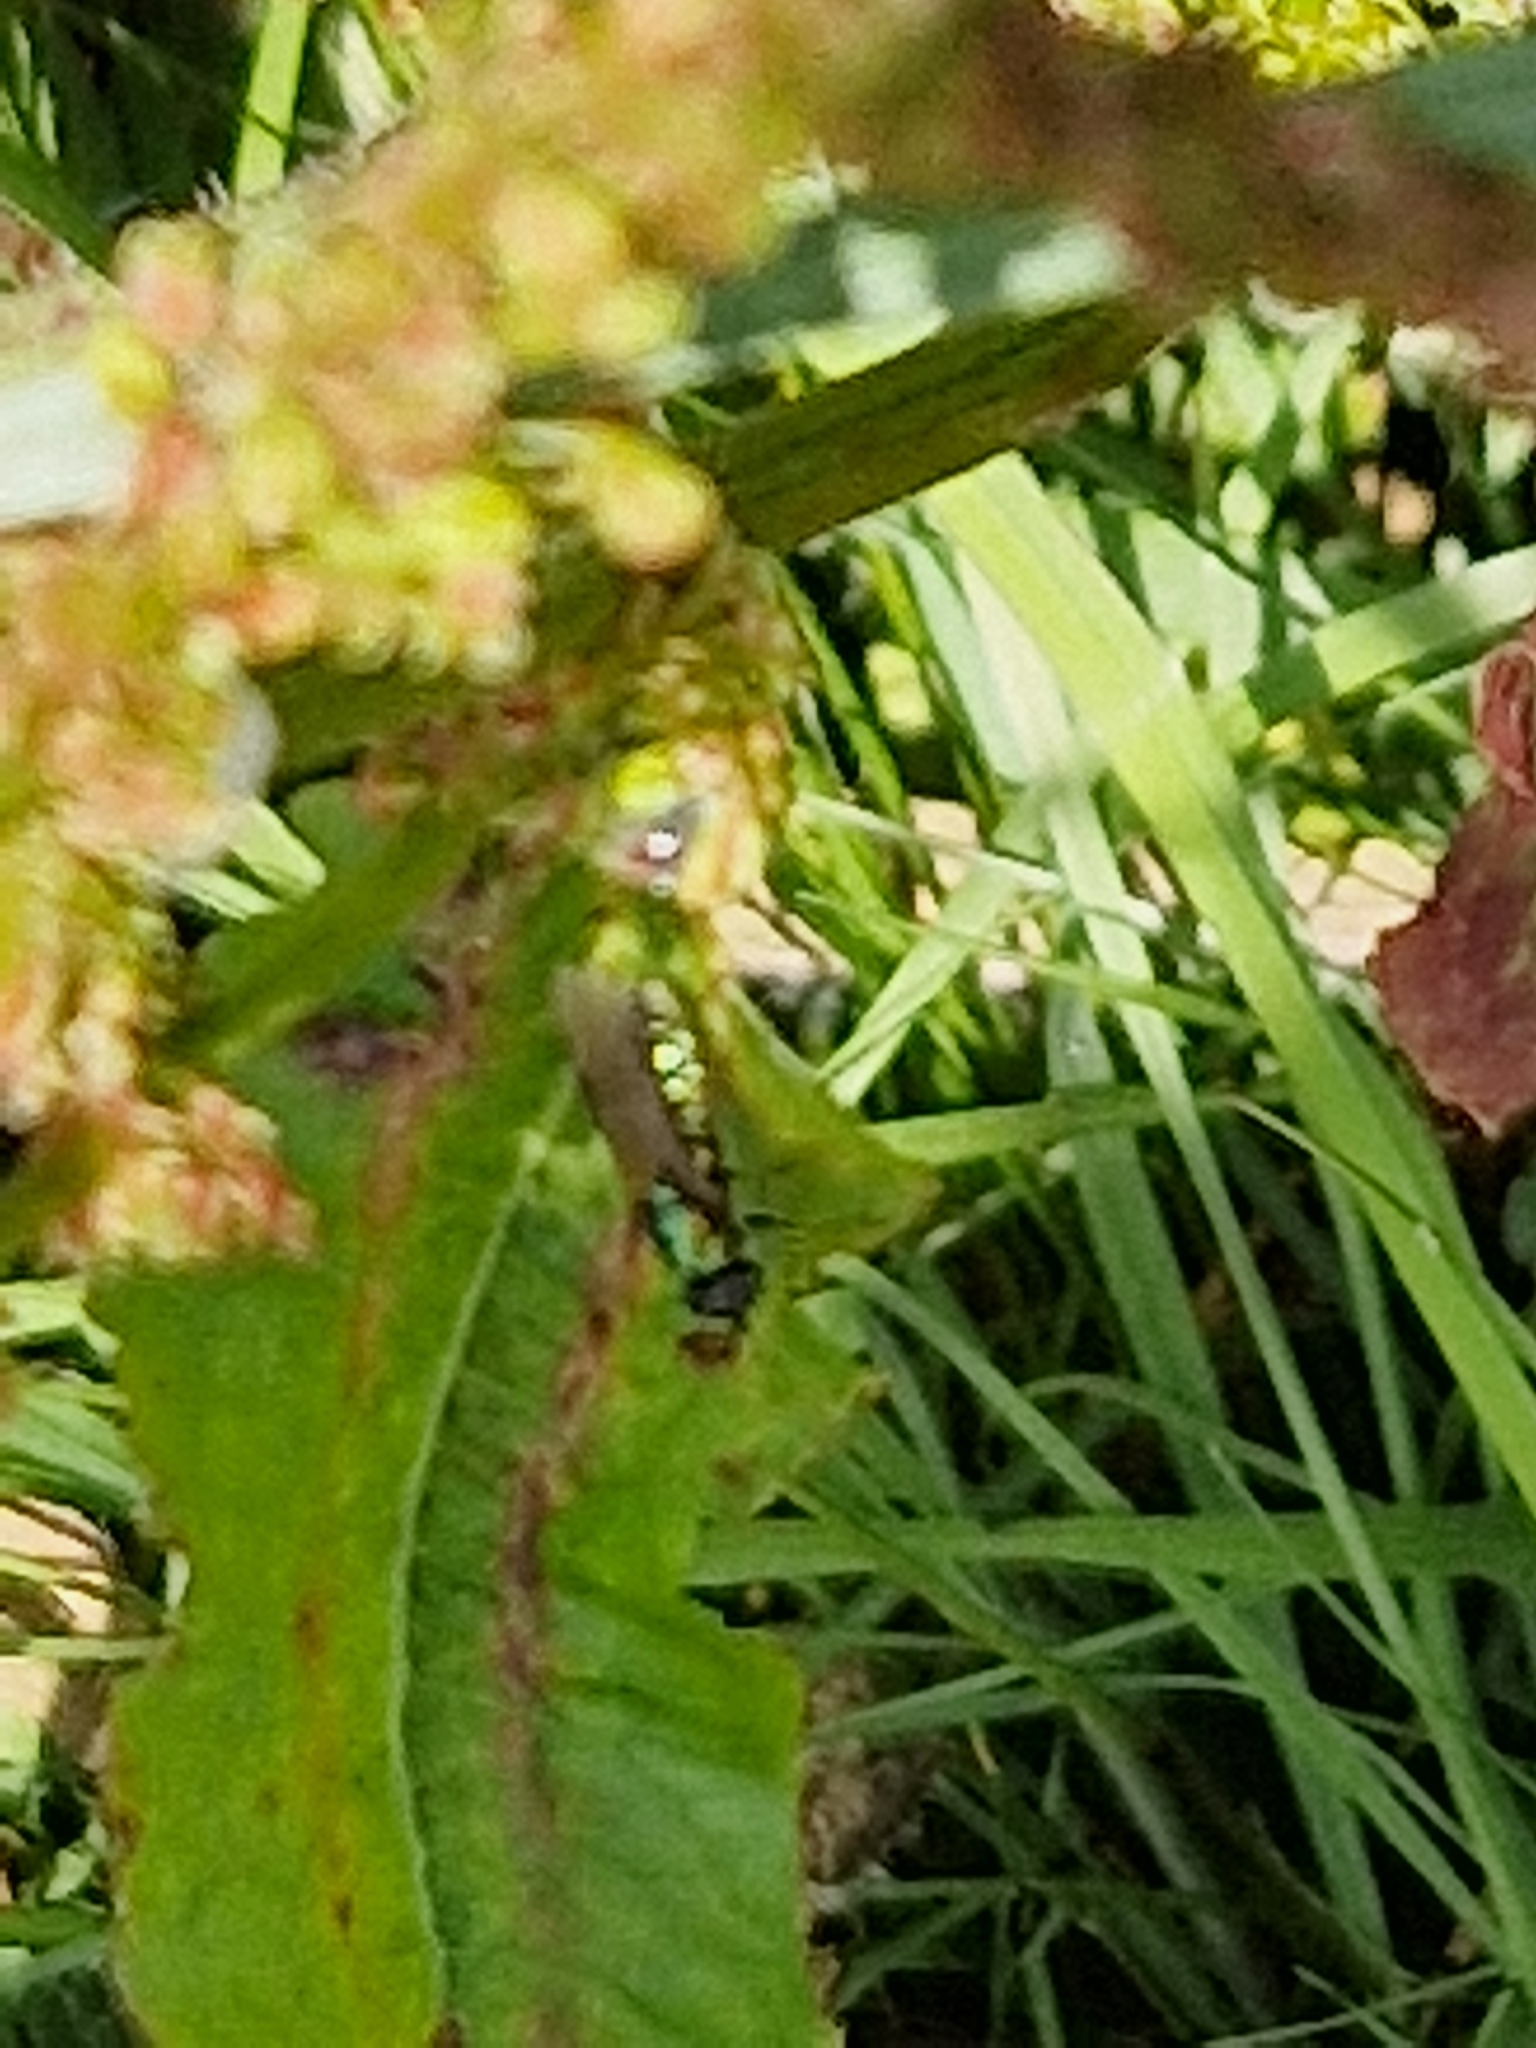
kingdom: Animalia
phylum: Arthropoda
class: Insecta
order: Diptera
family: Stratiomyidae
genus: Chloromyia
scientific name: Chloromyia formosa
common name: Soldier fly
